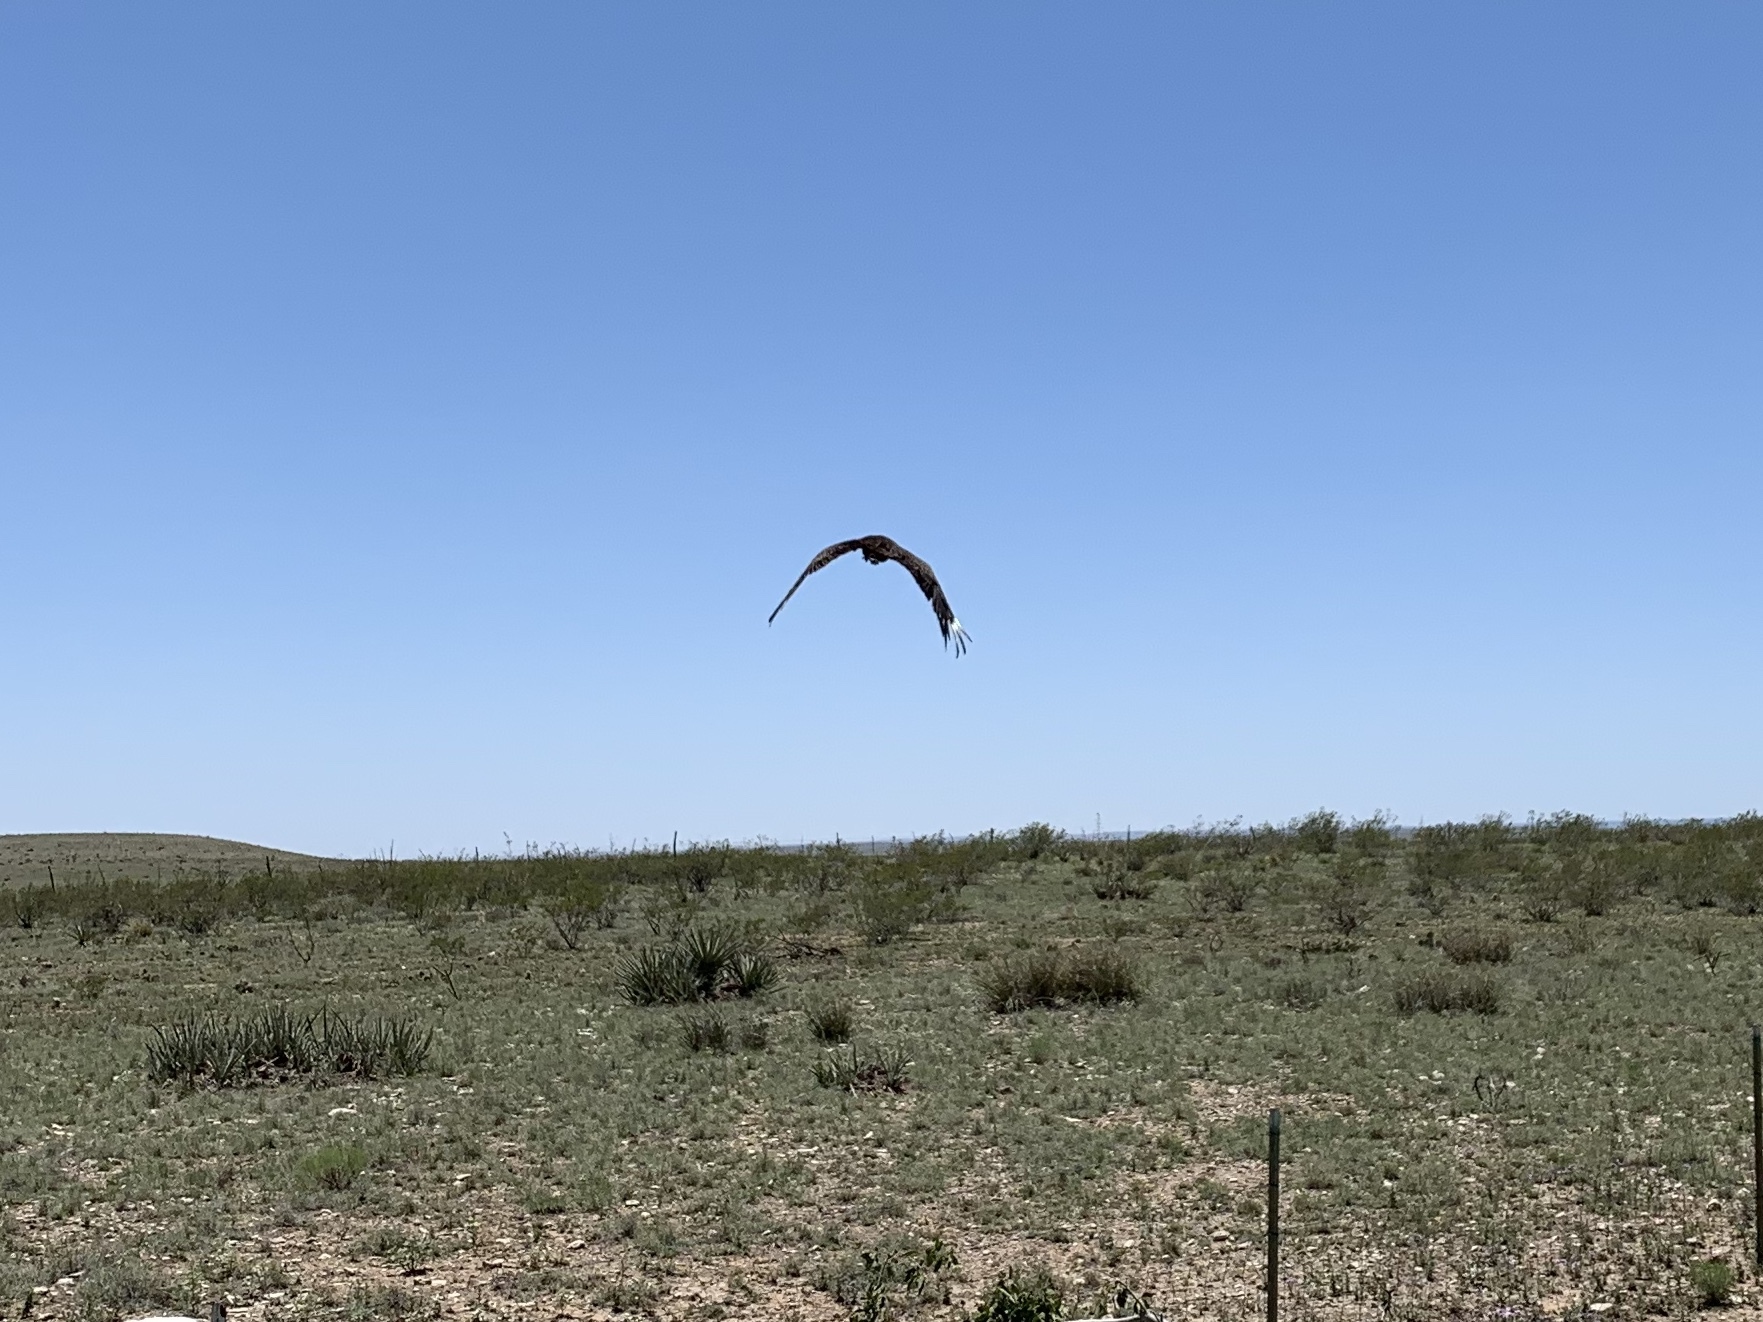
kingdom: Animalia
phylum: Chordata
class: Aves
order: Accipitriformes
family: Cathartidae
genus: Cathartes
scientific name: Cathartes aura
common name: Turkey vulture
